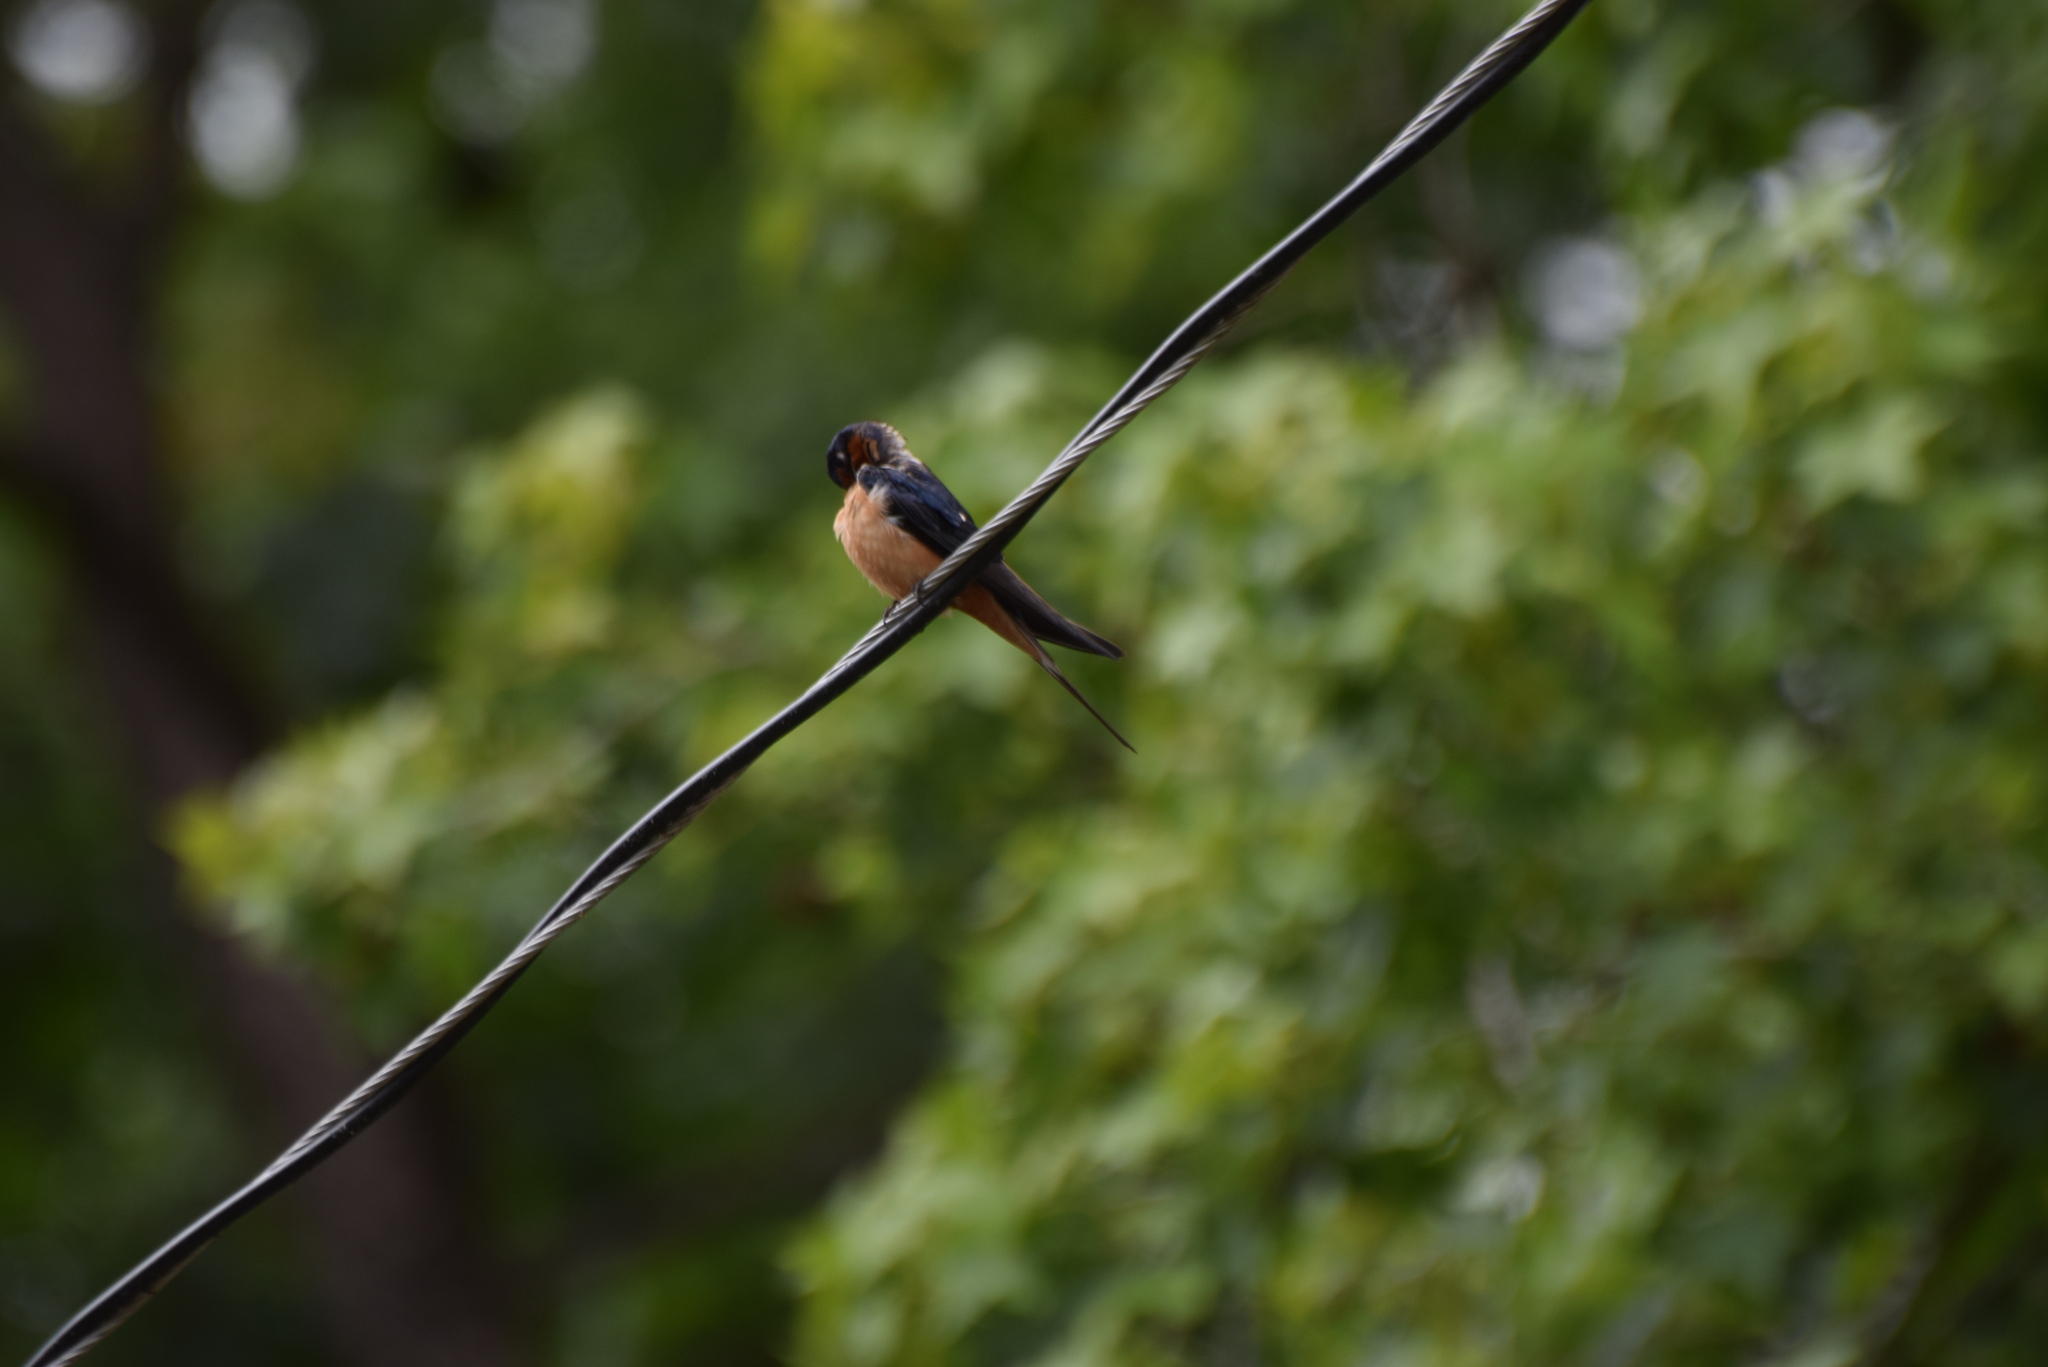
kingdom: Animalia
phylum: Chordata
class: Aves
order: Passeriformes
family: Hirundinidae
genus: Hirundo
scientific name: Hirundo rustica
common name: Barn swallow
